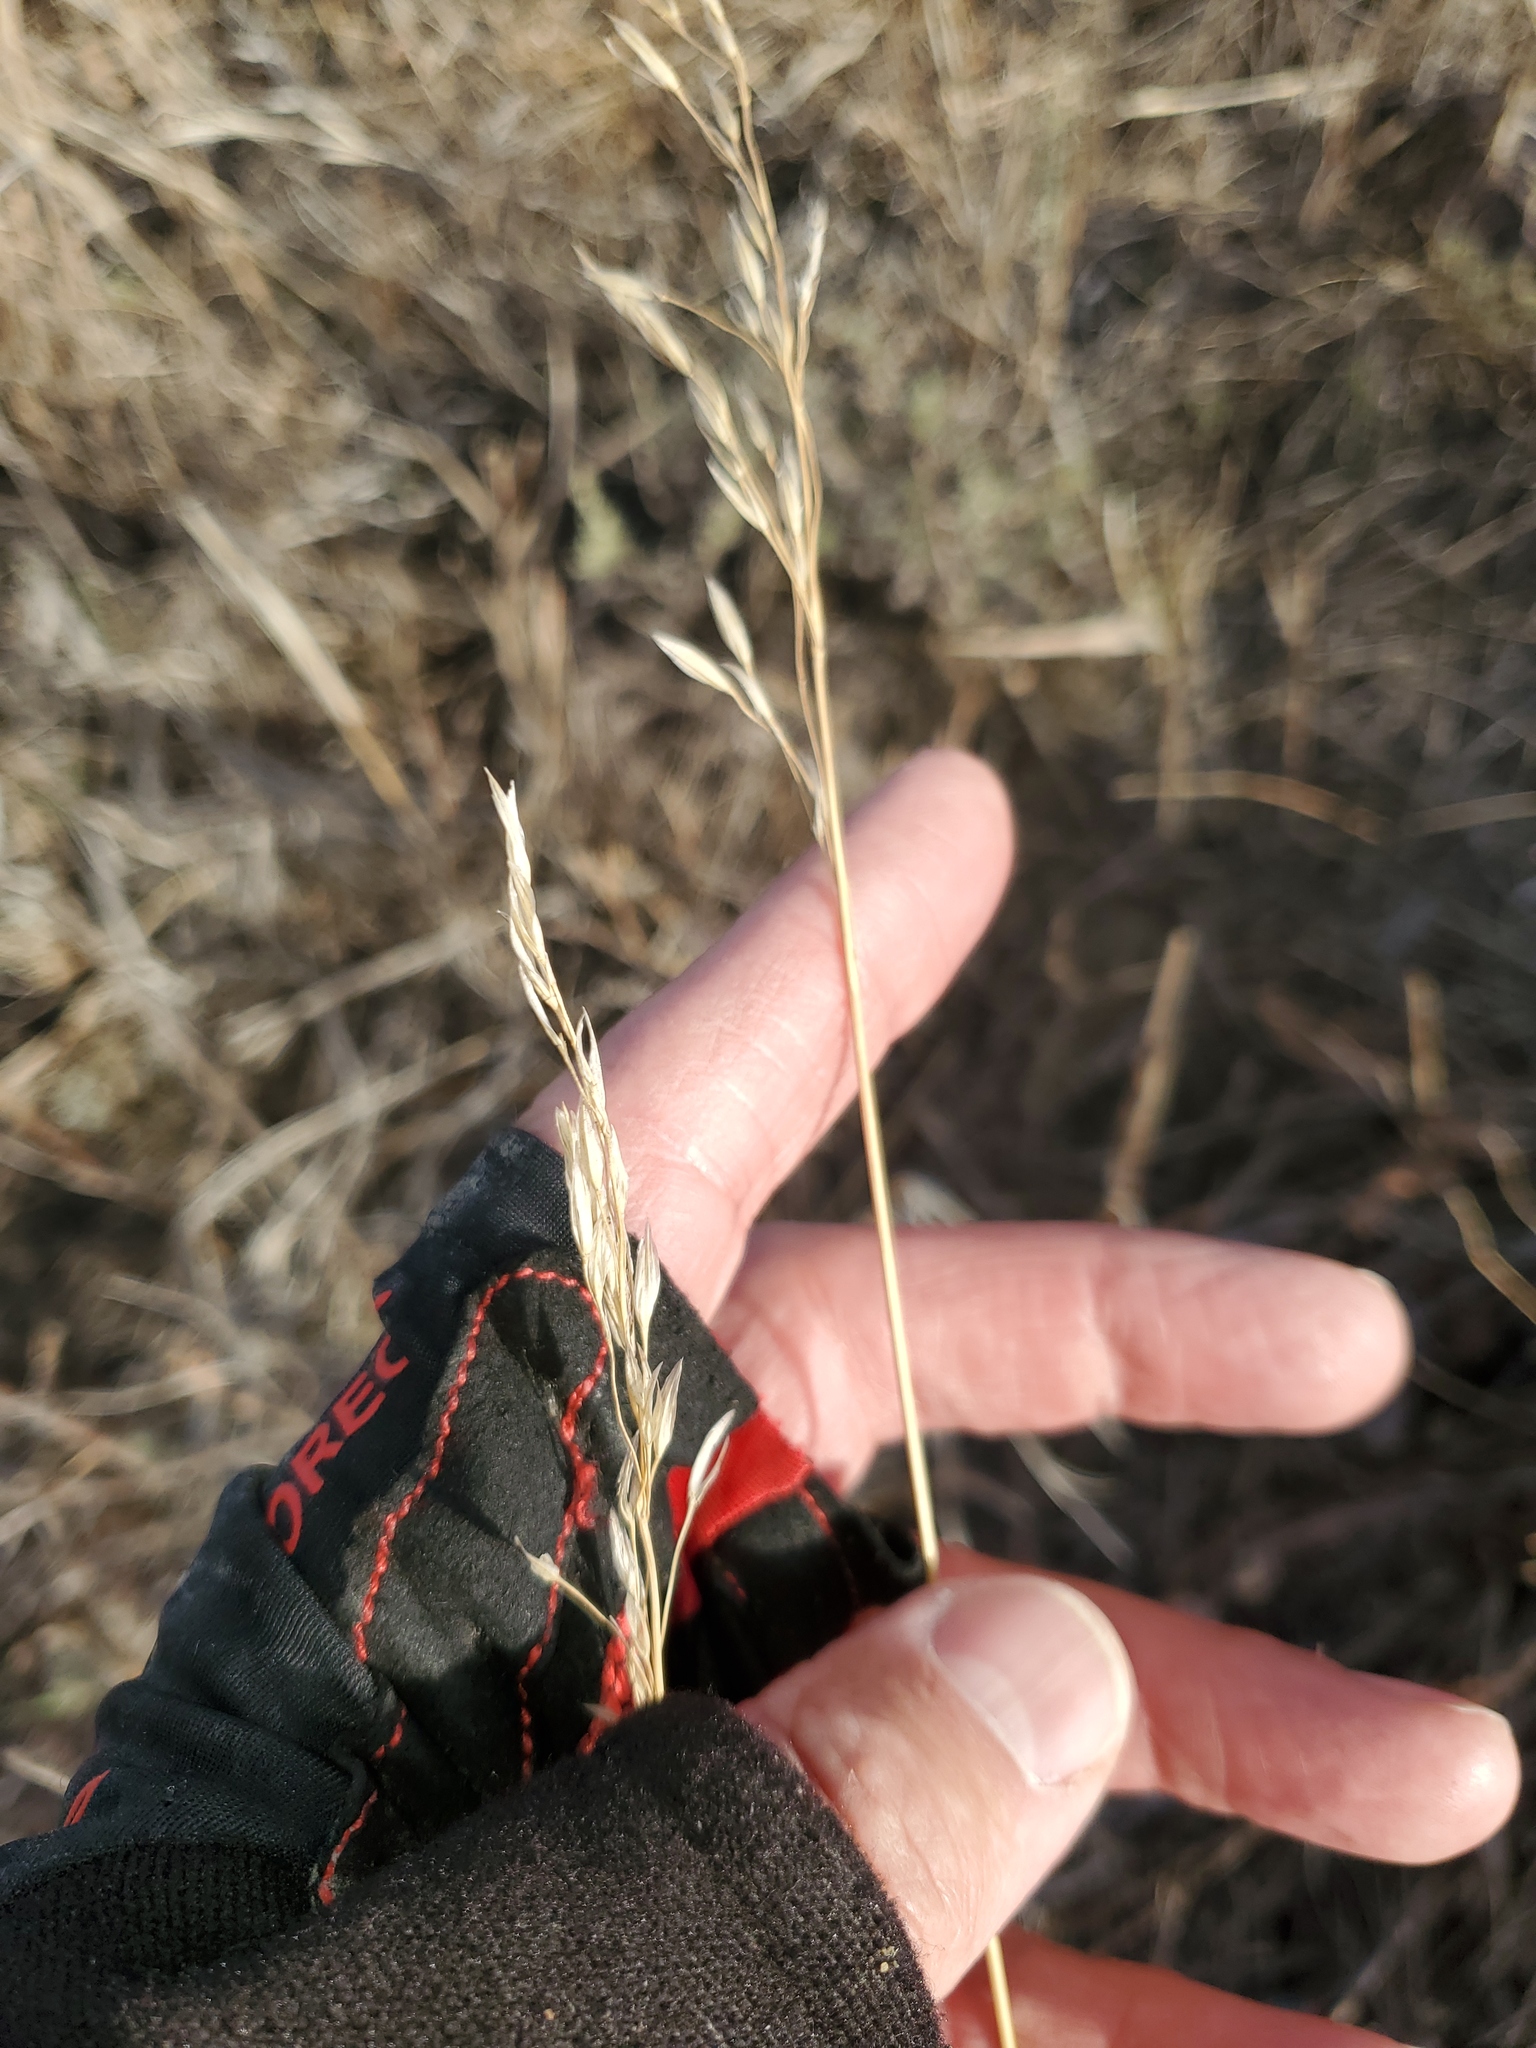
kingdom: Plantae
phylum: Tracheophyta
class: Liliopsida
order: Poales
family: Poaceae
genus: Bromus
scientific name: Bromus inermis
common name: Smooth brome
